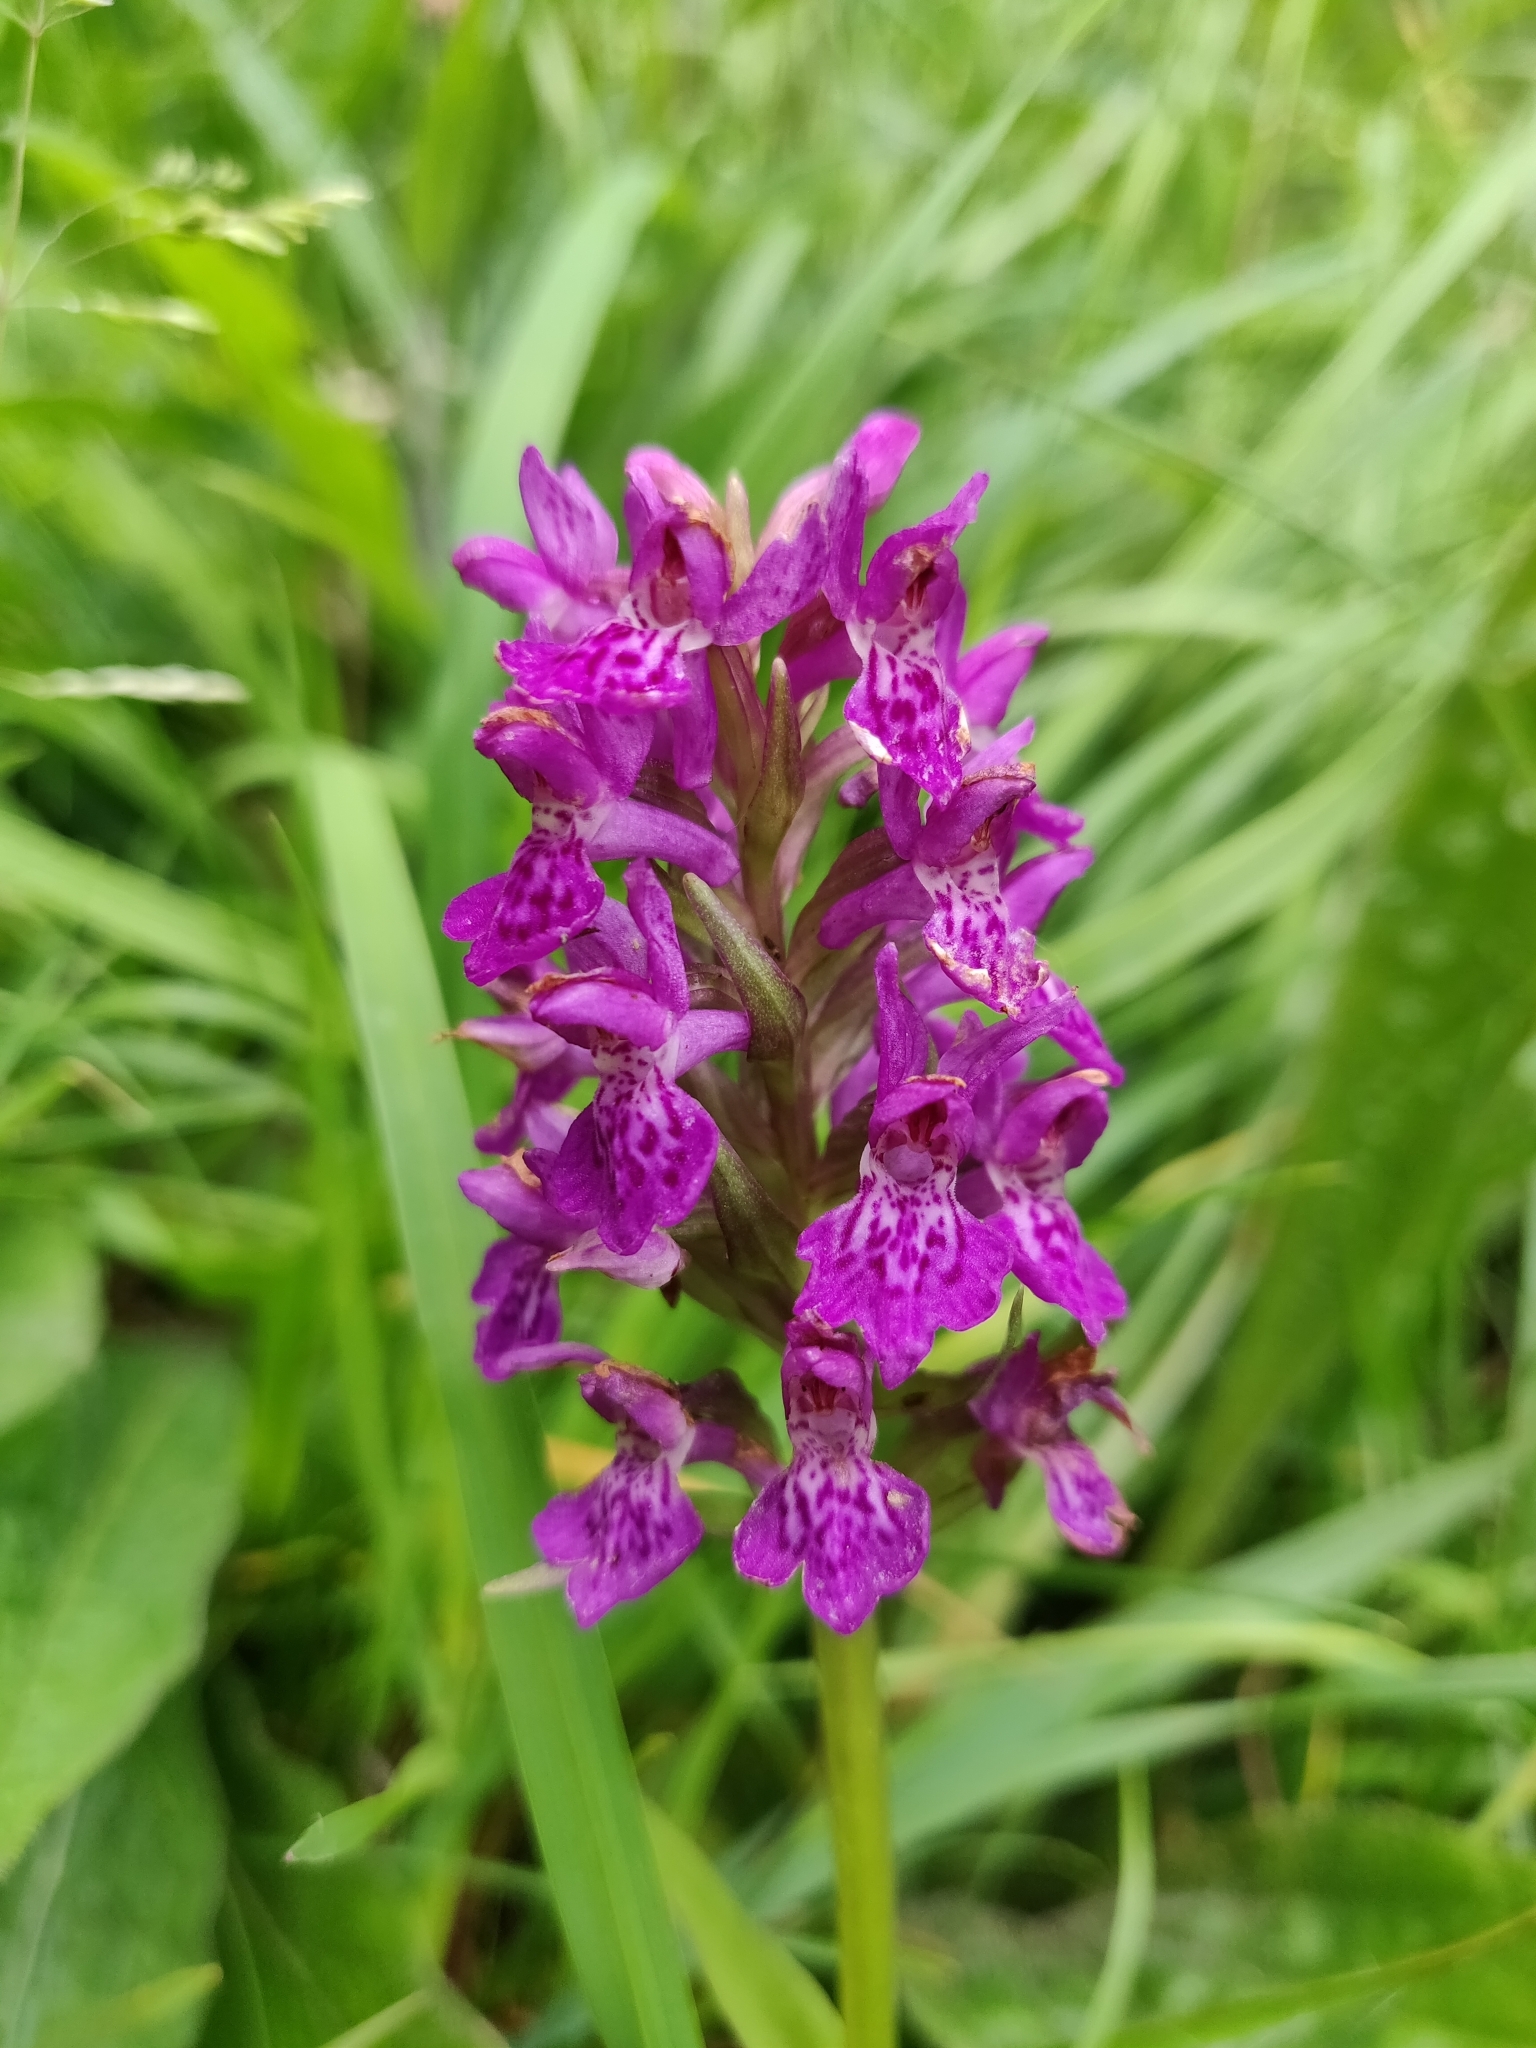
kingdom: Plantae
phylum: Tracheophyta
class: Liliopsida
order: Asparagales
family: Orchidaceae
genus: Dactylorhiza
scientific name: Dactylorhiza majalis
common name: Marsh orchid
